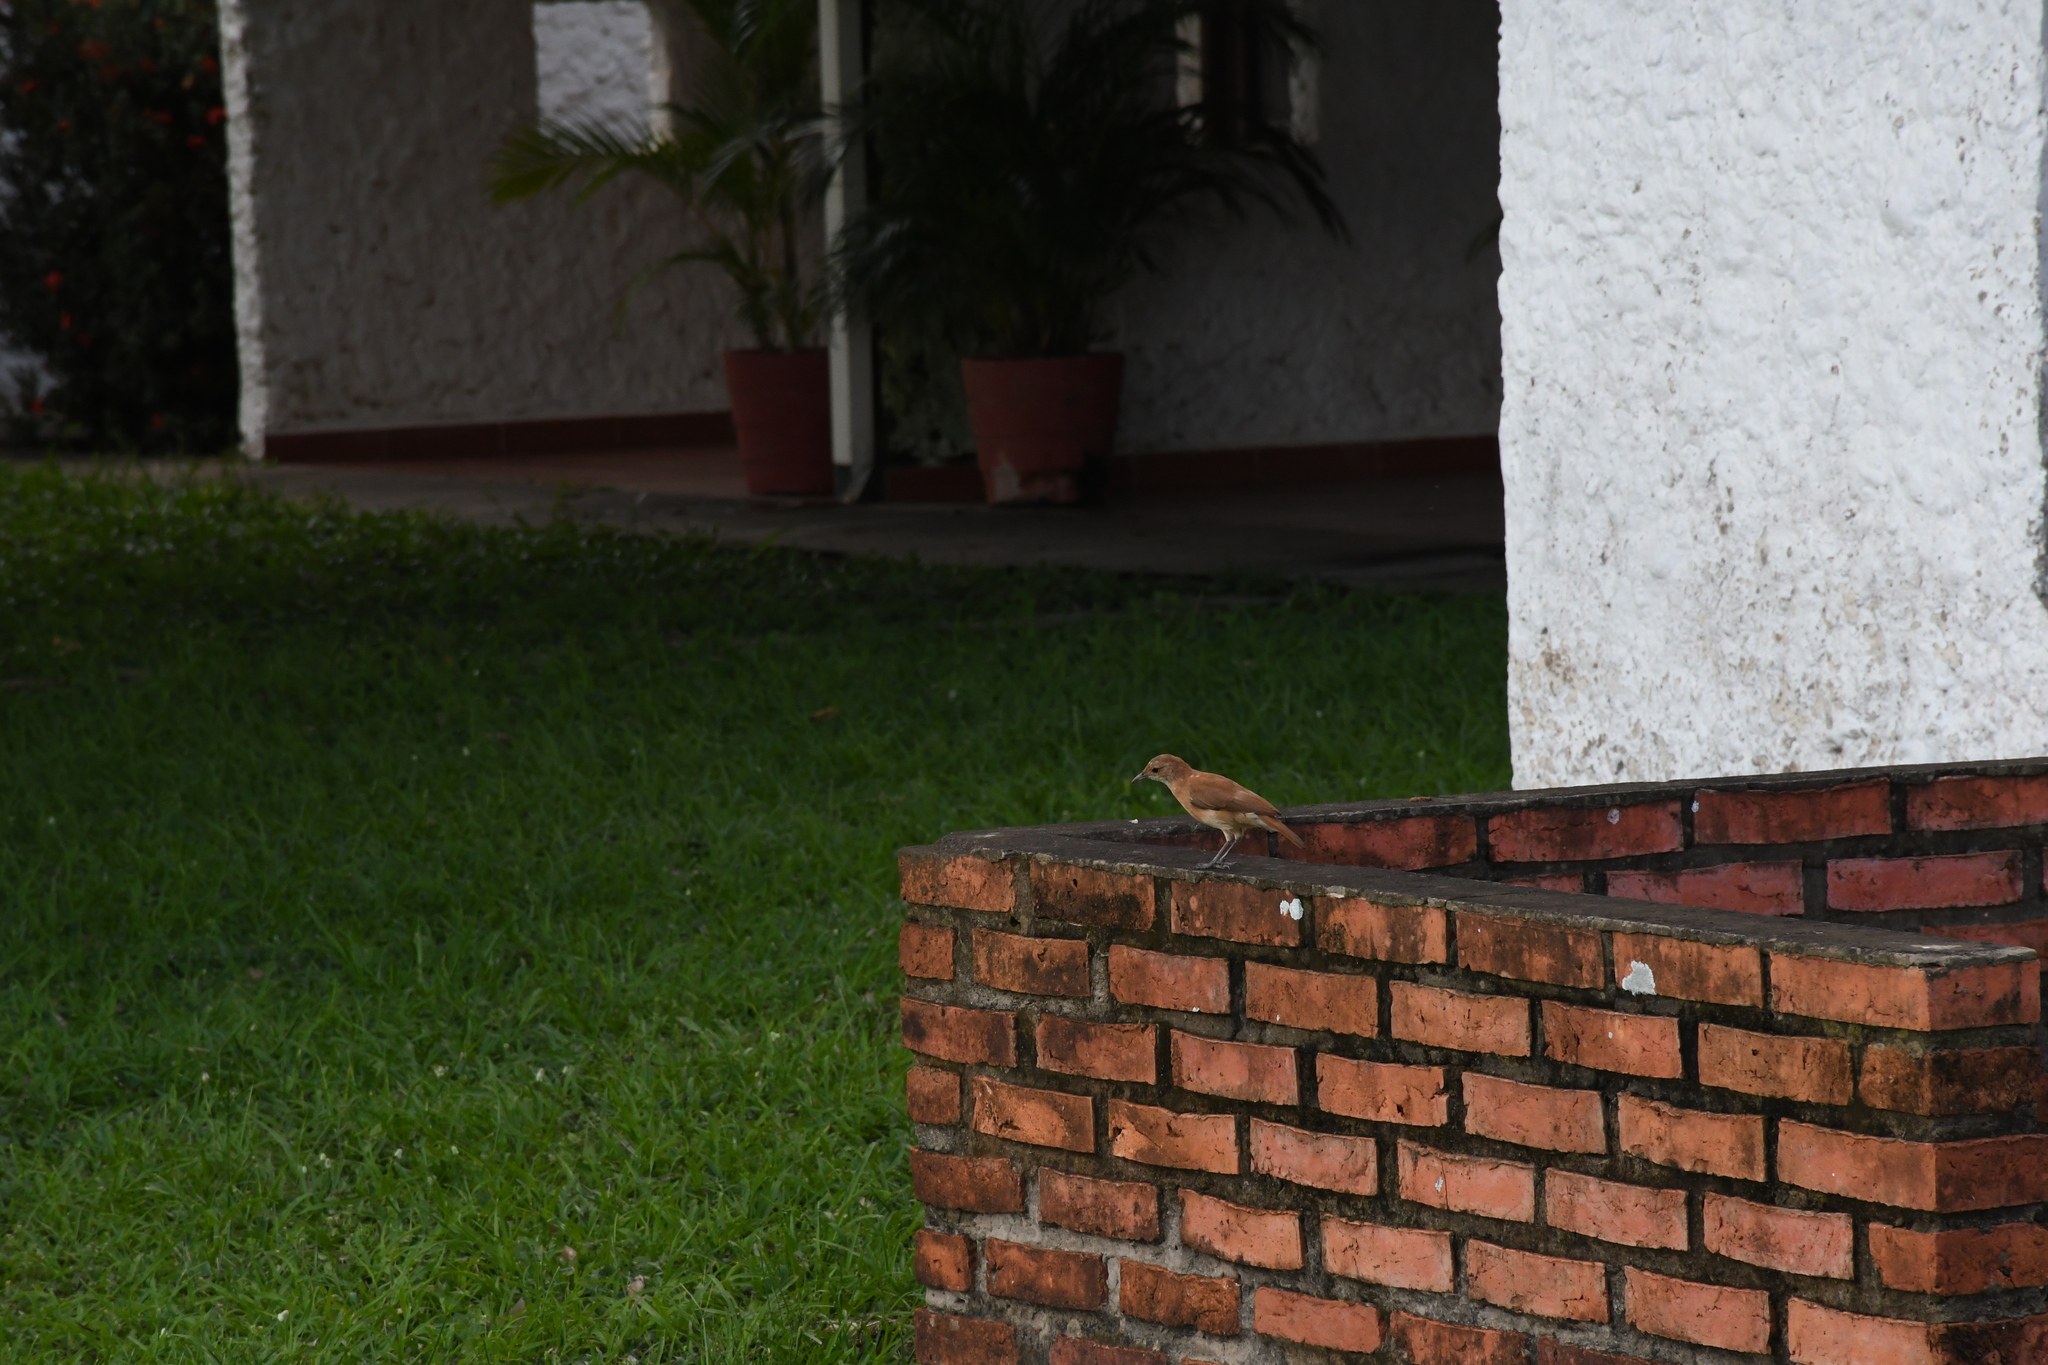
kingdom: Animalia
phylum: Chordata
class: Aves
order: Passeriformes
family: Furnariidae
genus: Furnarius
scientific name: Furnarius rufus
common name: Rufous hornero
